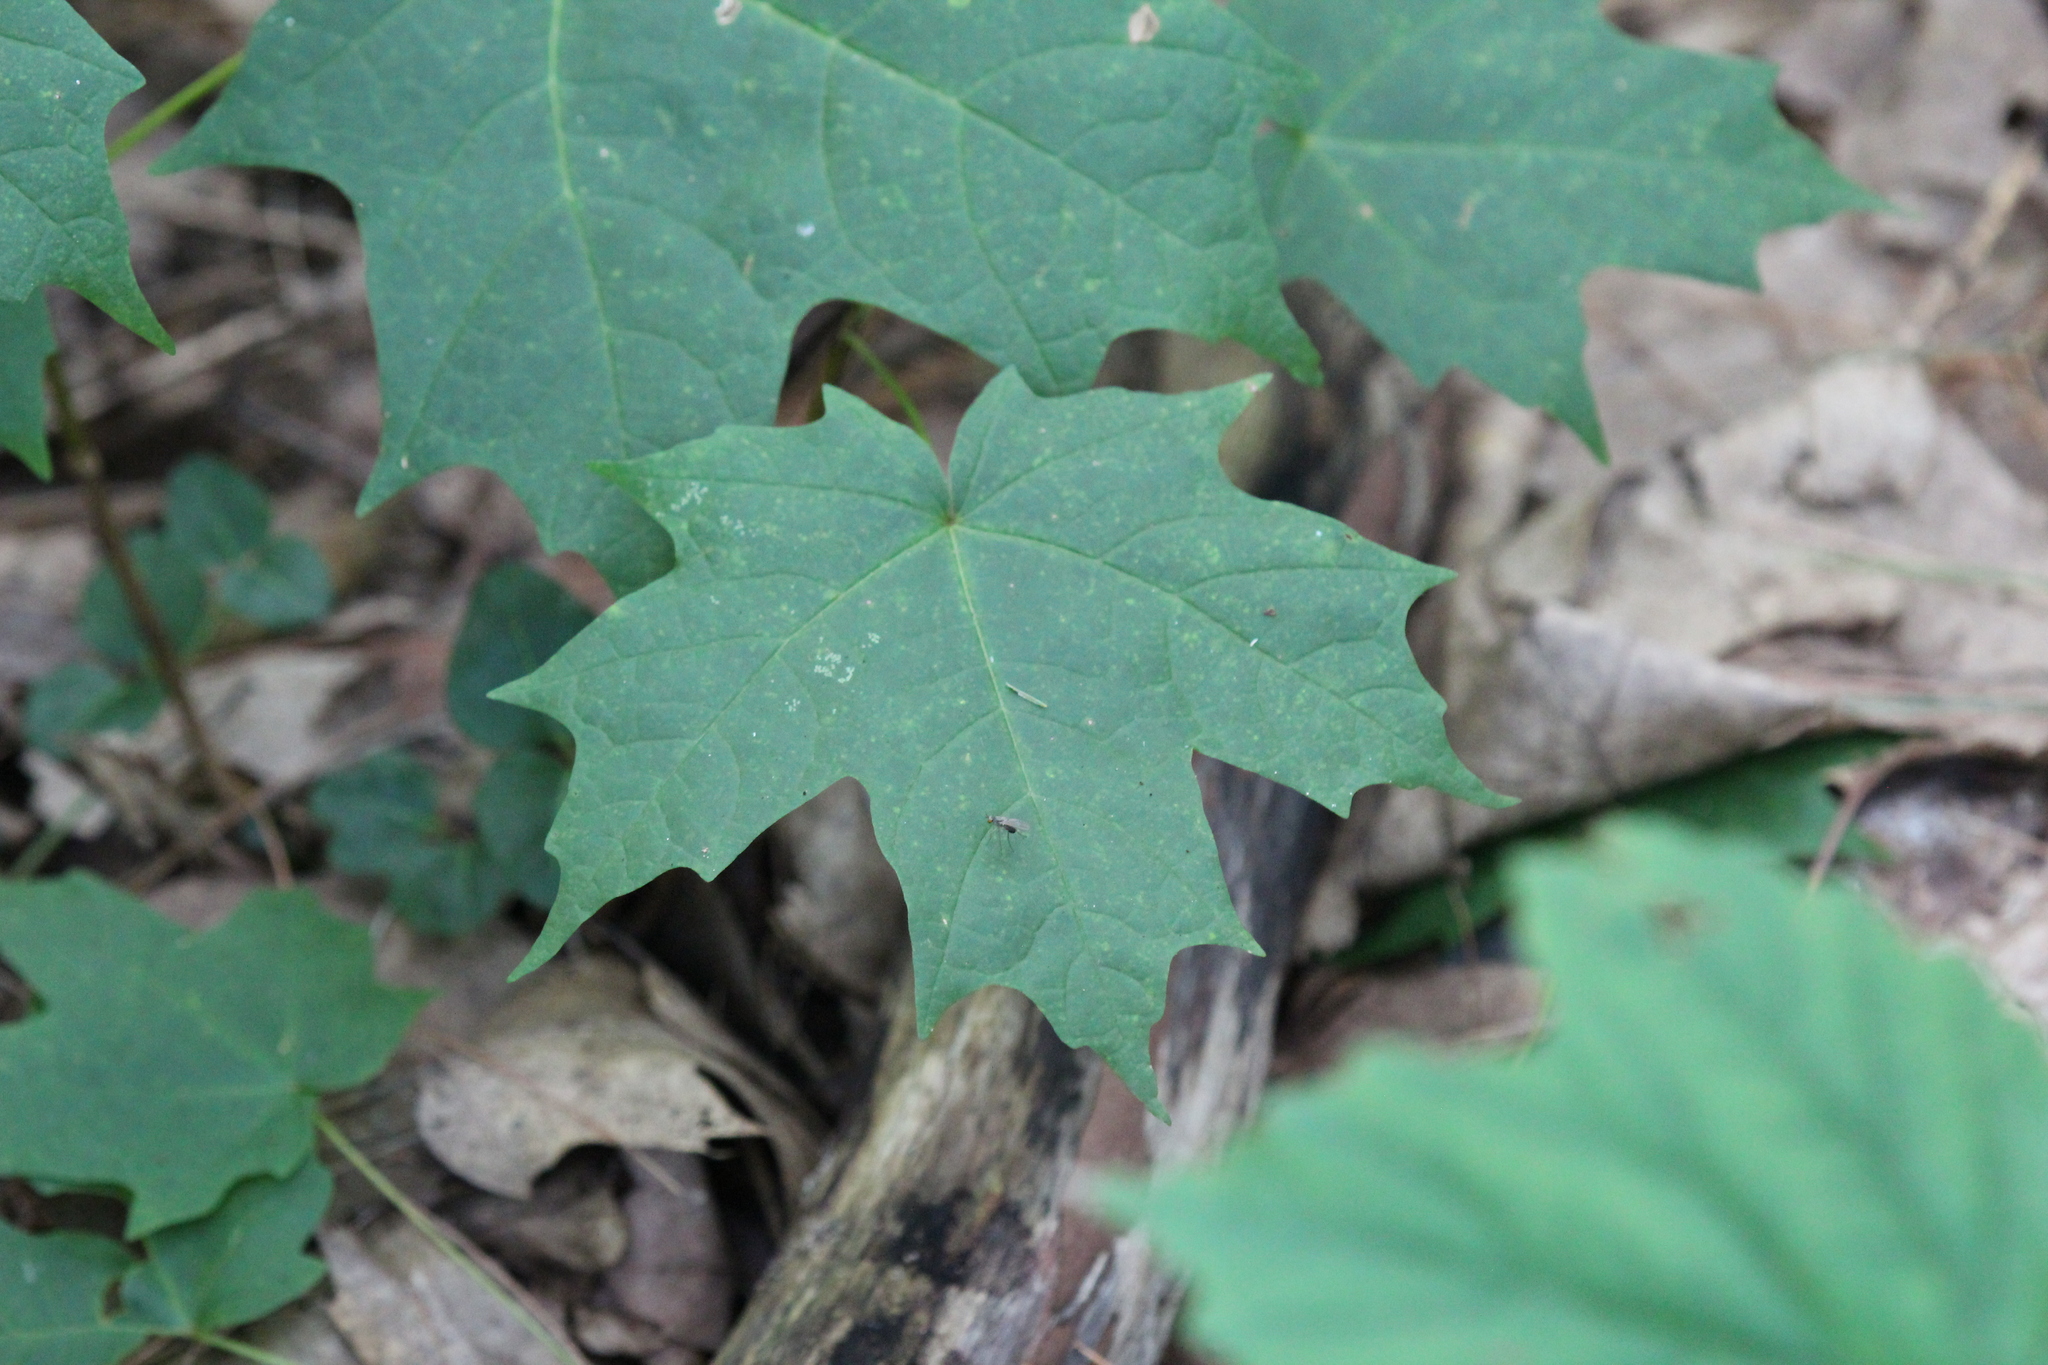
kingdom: Plantae
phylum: Tracheophyta
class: Magnoliopsida
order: Sapindales
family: Sapindaceae
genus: Acer
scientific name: Acer saccharum
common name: Sugar maple
